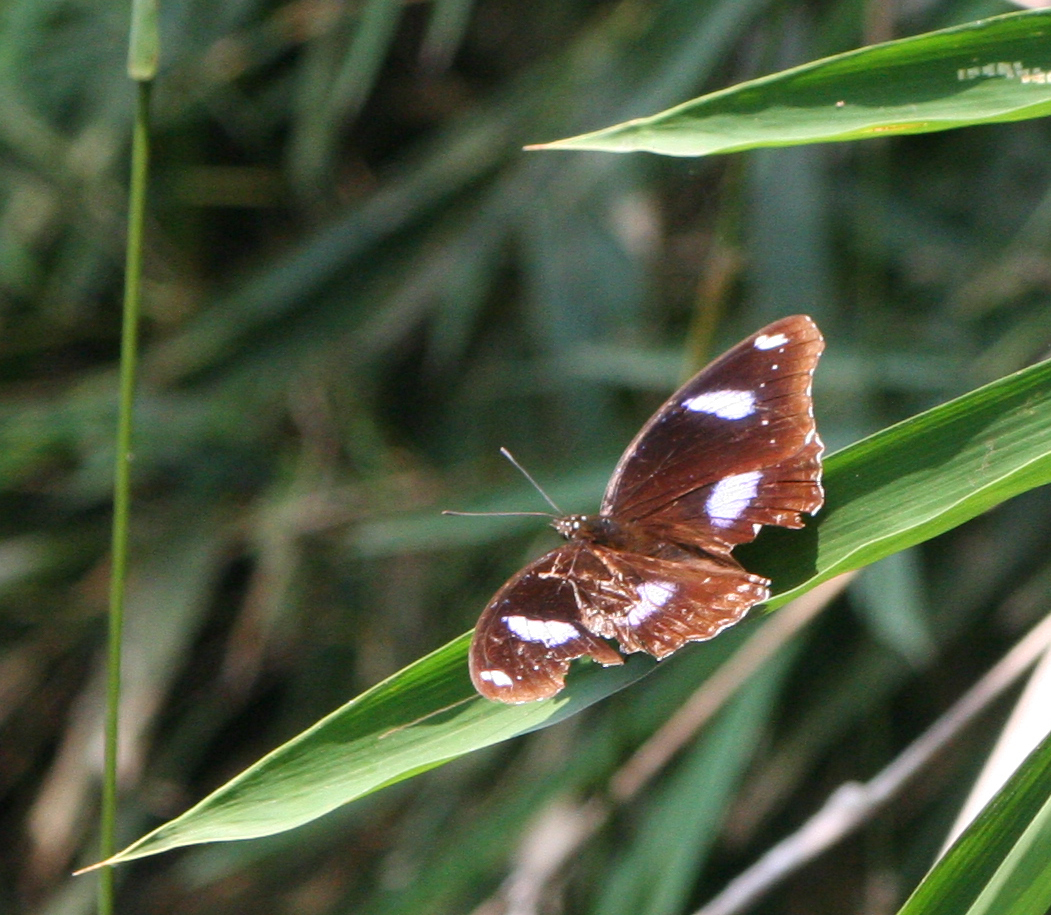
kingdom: Animalia
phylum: Arthropoda
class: Insecta
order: Lepidoptera
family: Nymphalidae
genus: Hypolimnas
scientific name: Hypolimnas bolina
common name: Great eggfly
